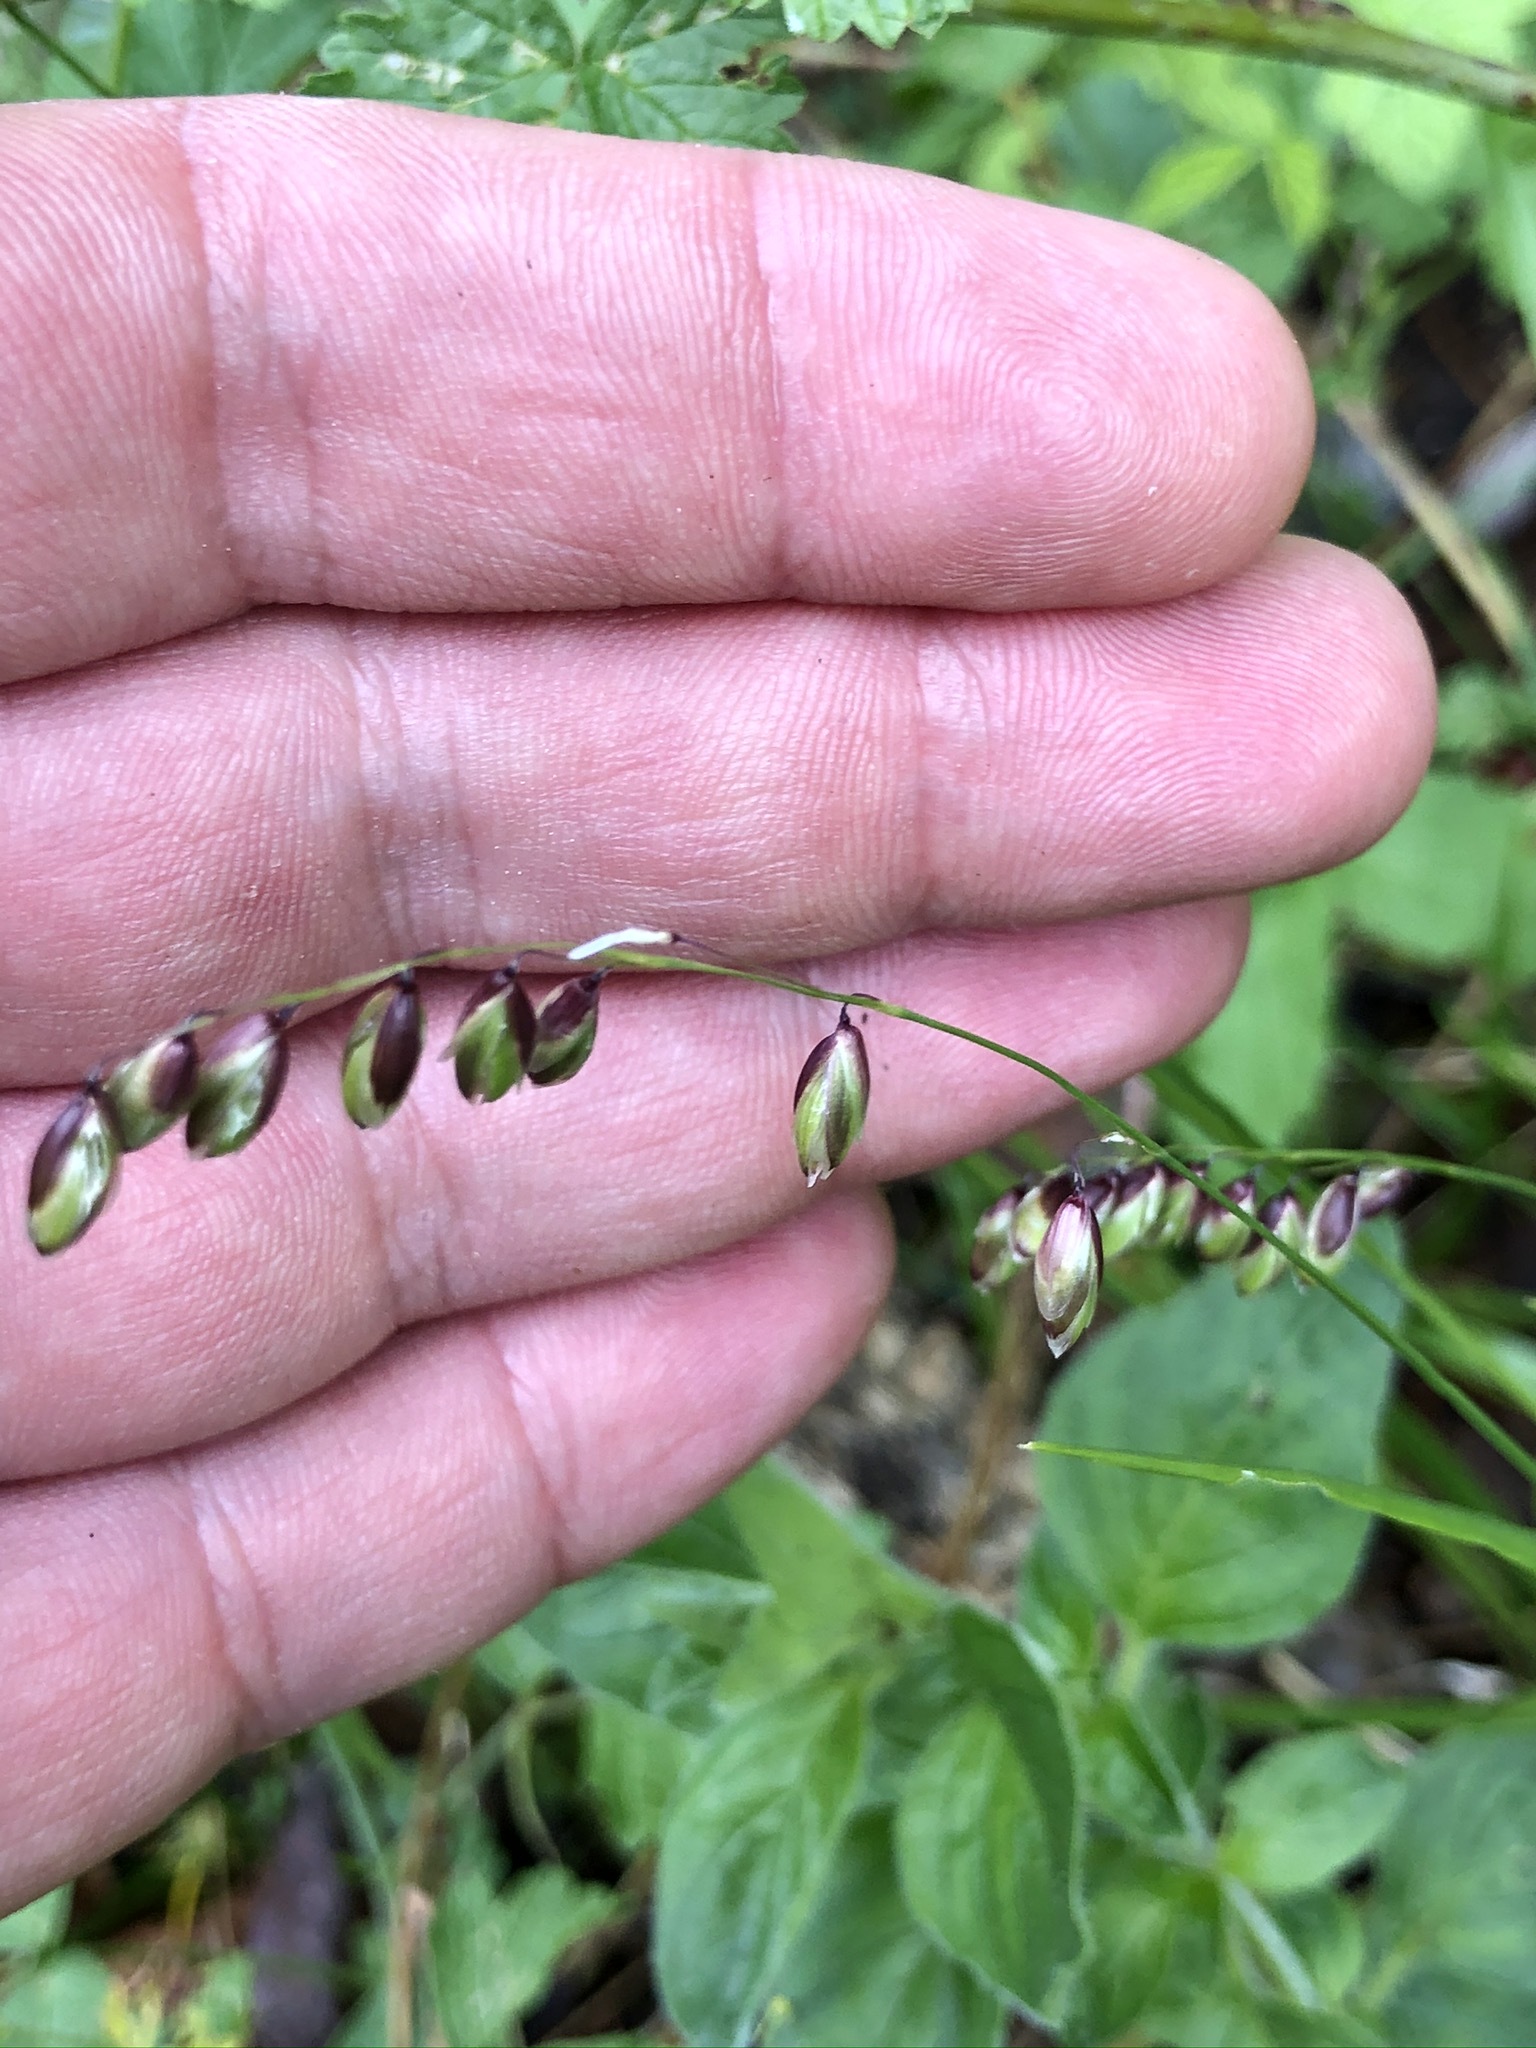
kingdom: Plantae
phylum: Tracheophyta
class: Liliopsida
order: Poales
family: Poaceae
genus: Melica
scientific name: Melica nutans
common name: Mountain melick
